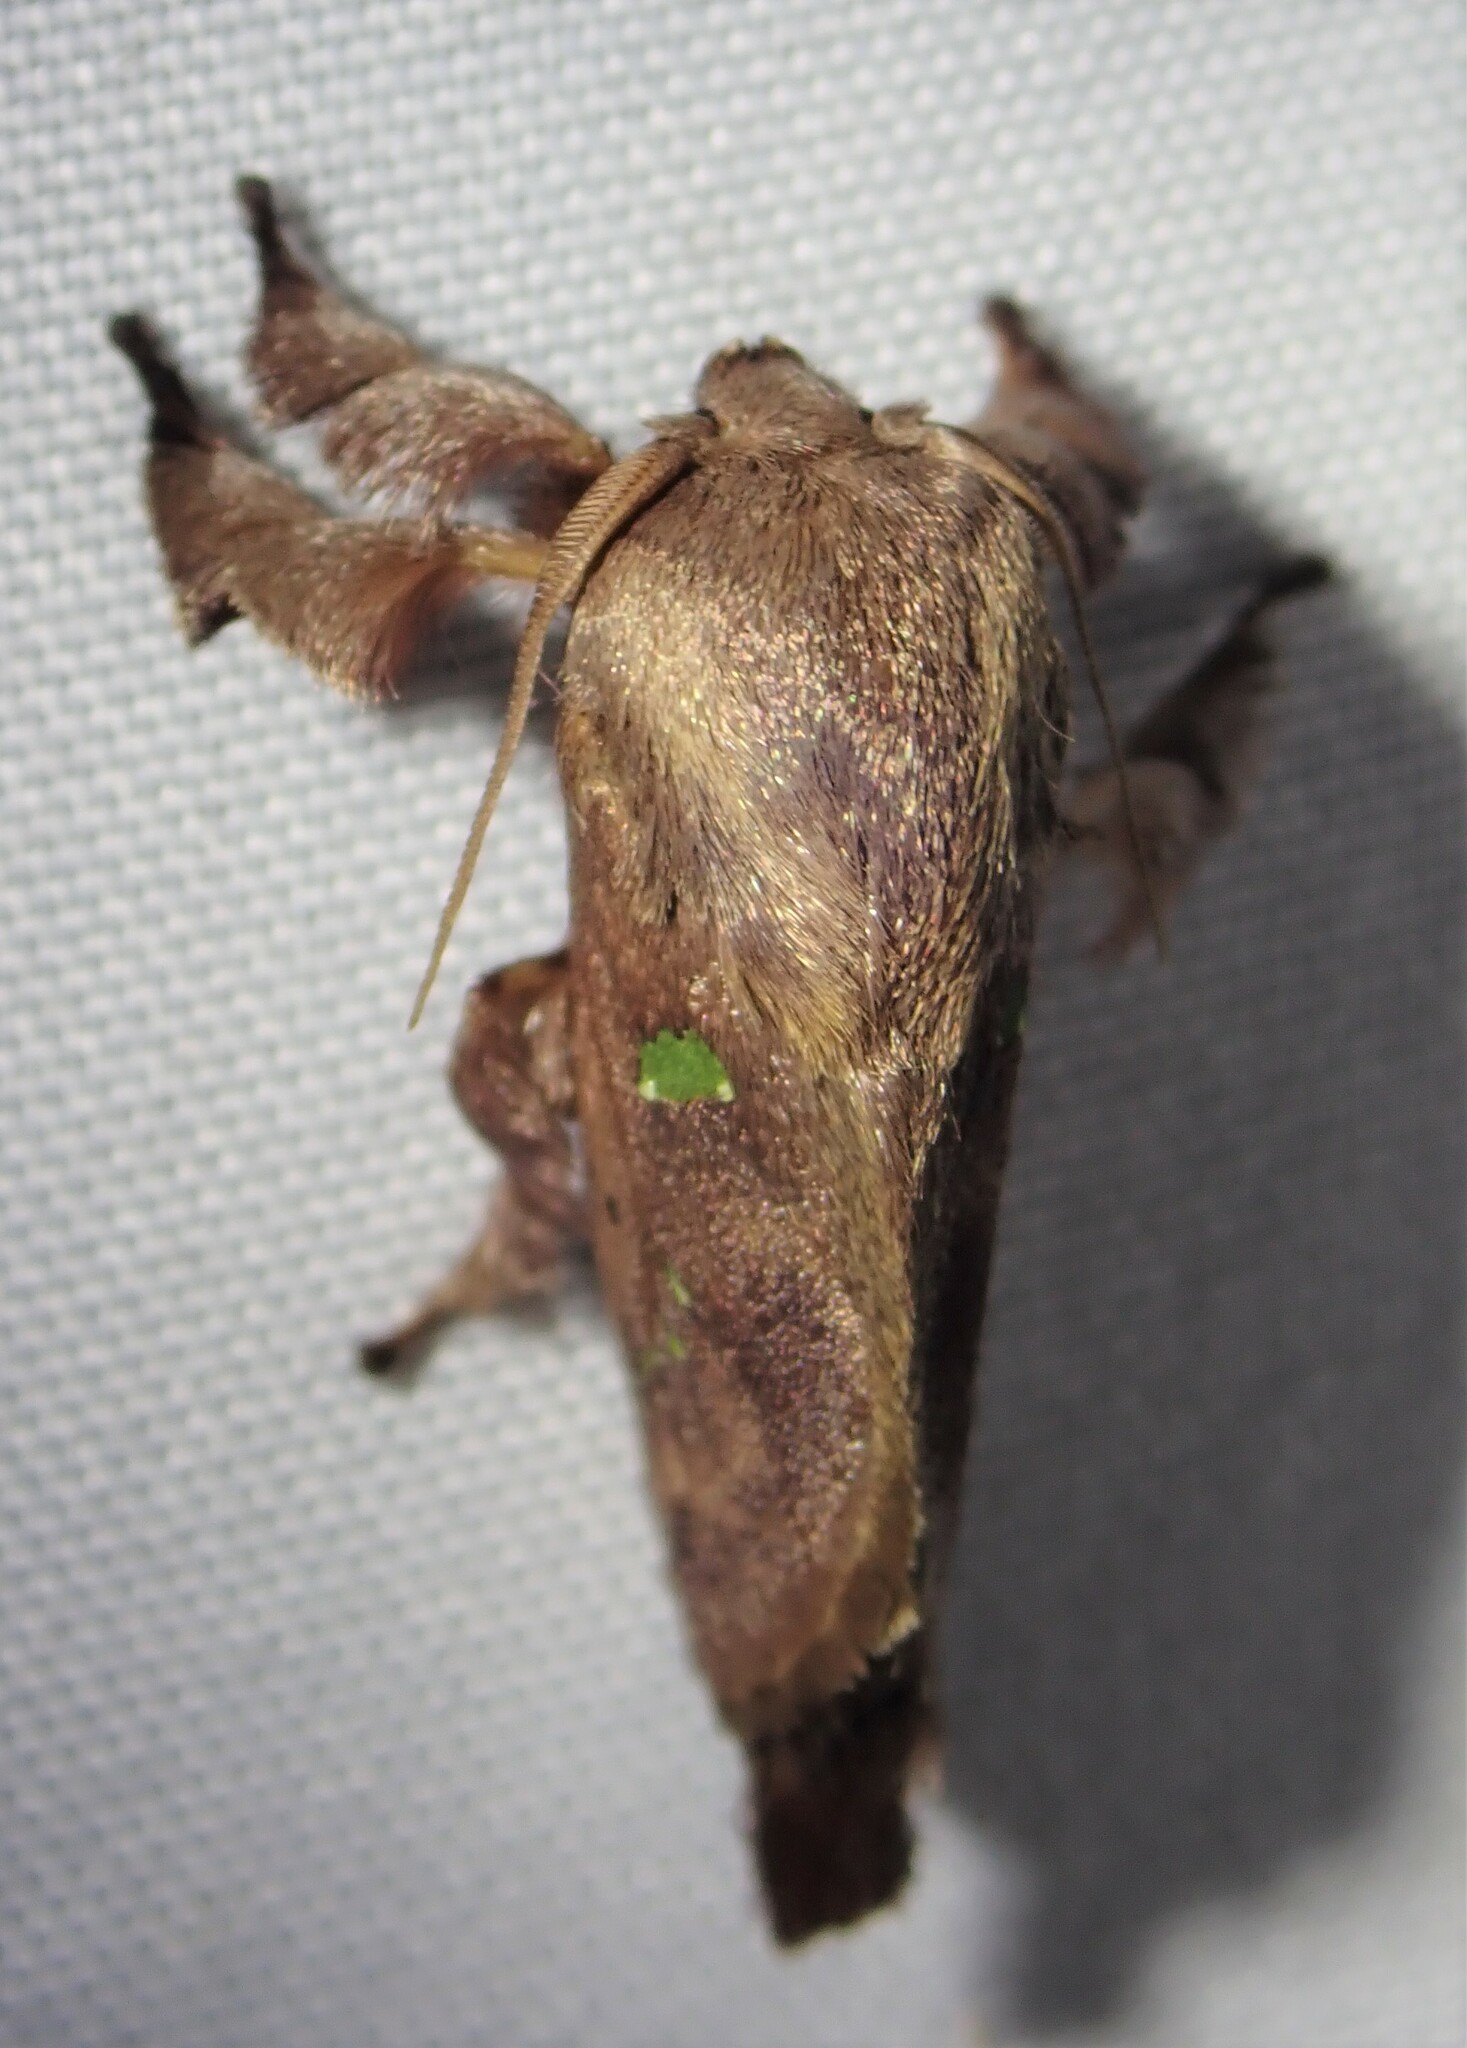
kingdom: Animalia
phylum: Arthropoda
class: Insecta
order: Lepidoptera
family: Limacodidae
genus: Euclea
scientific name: Euclea norba
